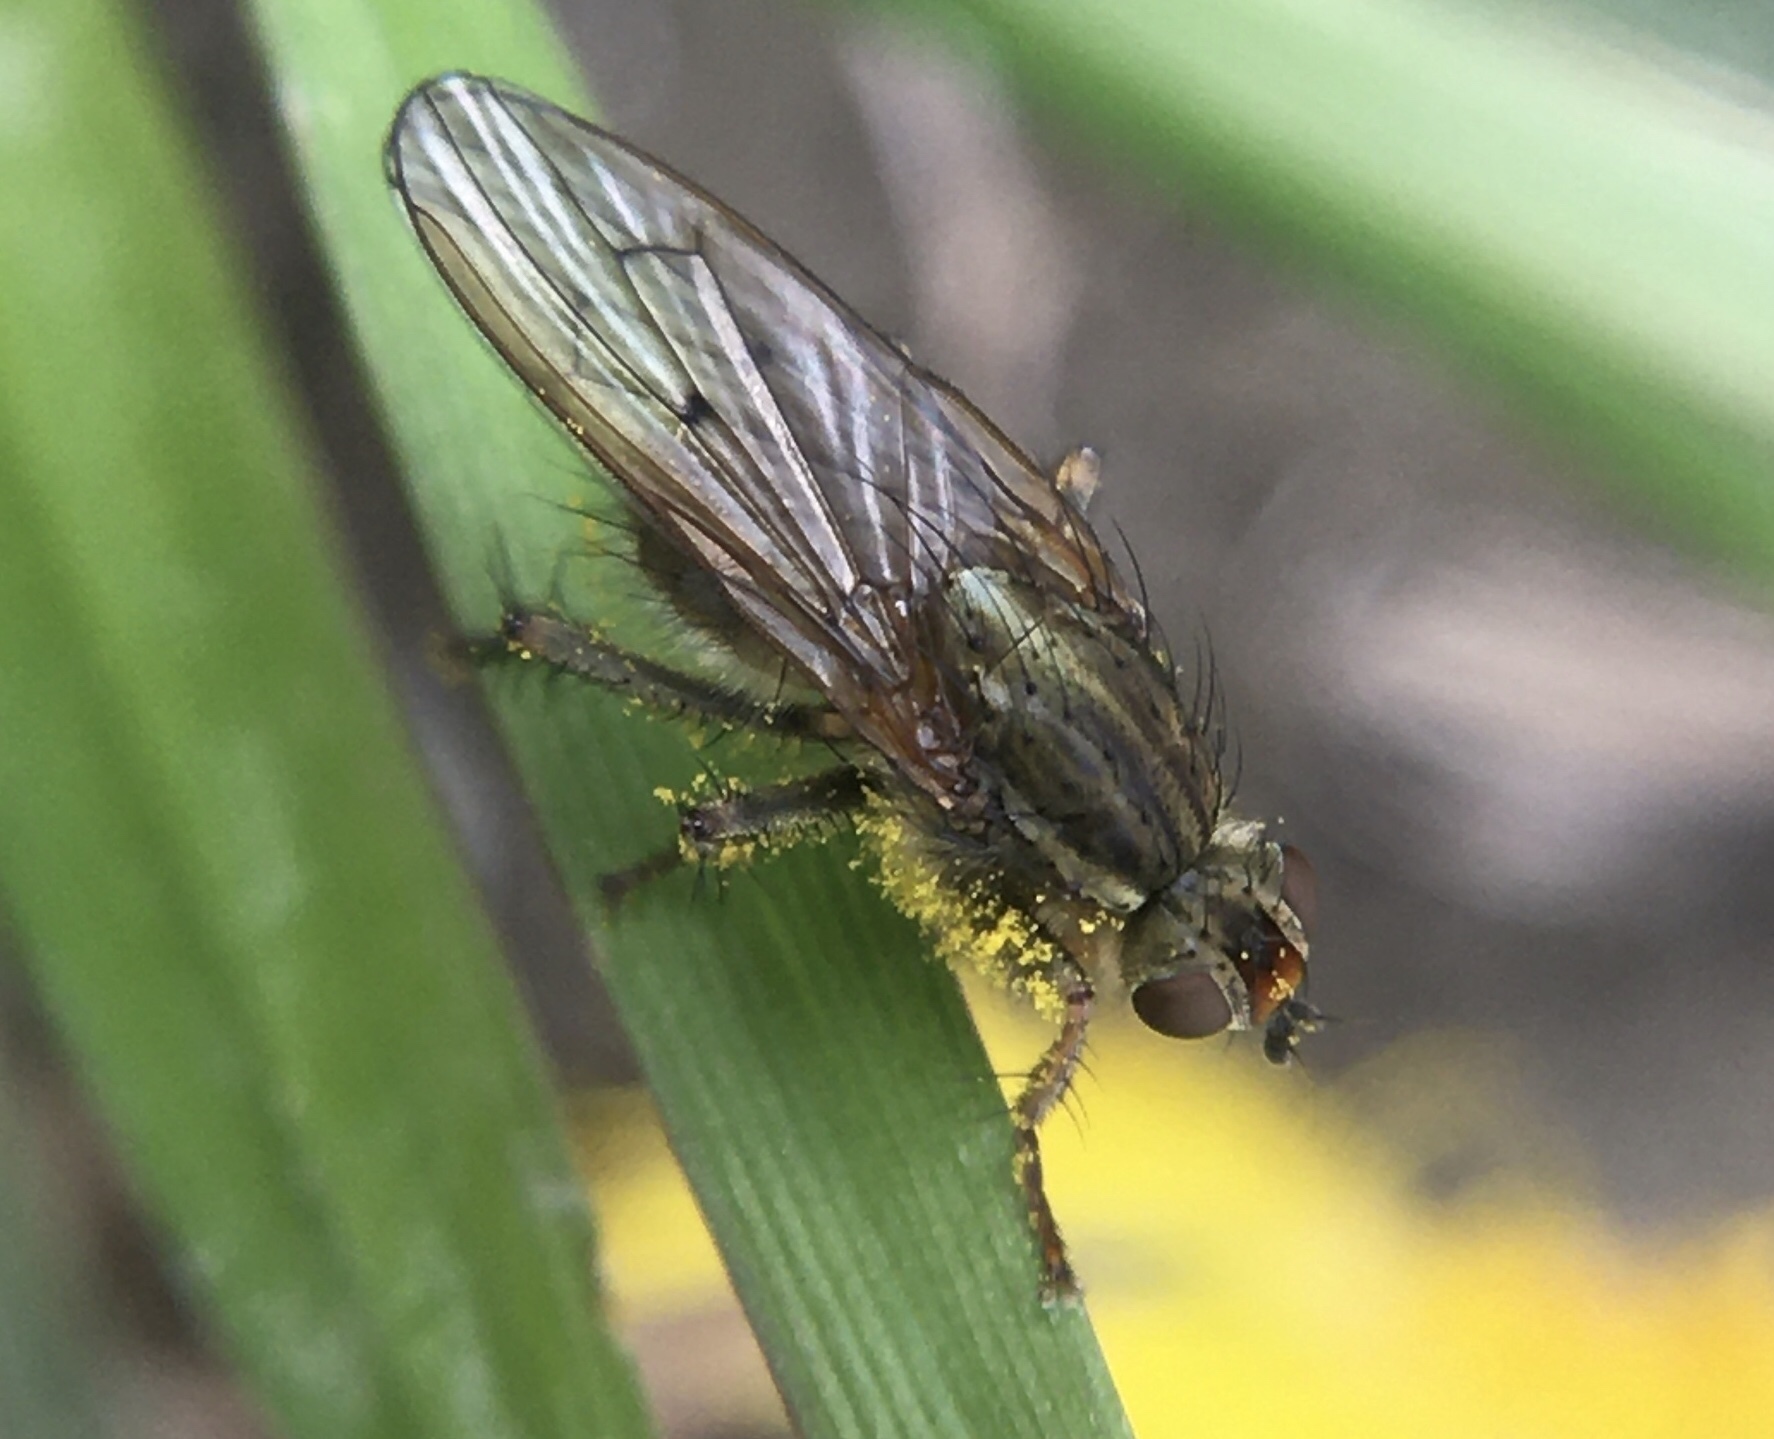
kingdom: Animalia
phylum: Arthropoda
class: Insecta
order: Diptera
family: Scathophagidae
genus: Scathophaga
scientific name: Scathophaga stercoraria
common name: Yellow dung fly
